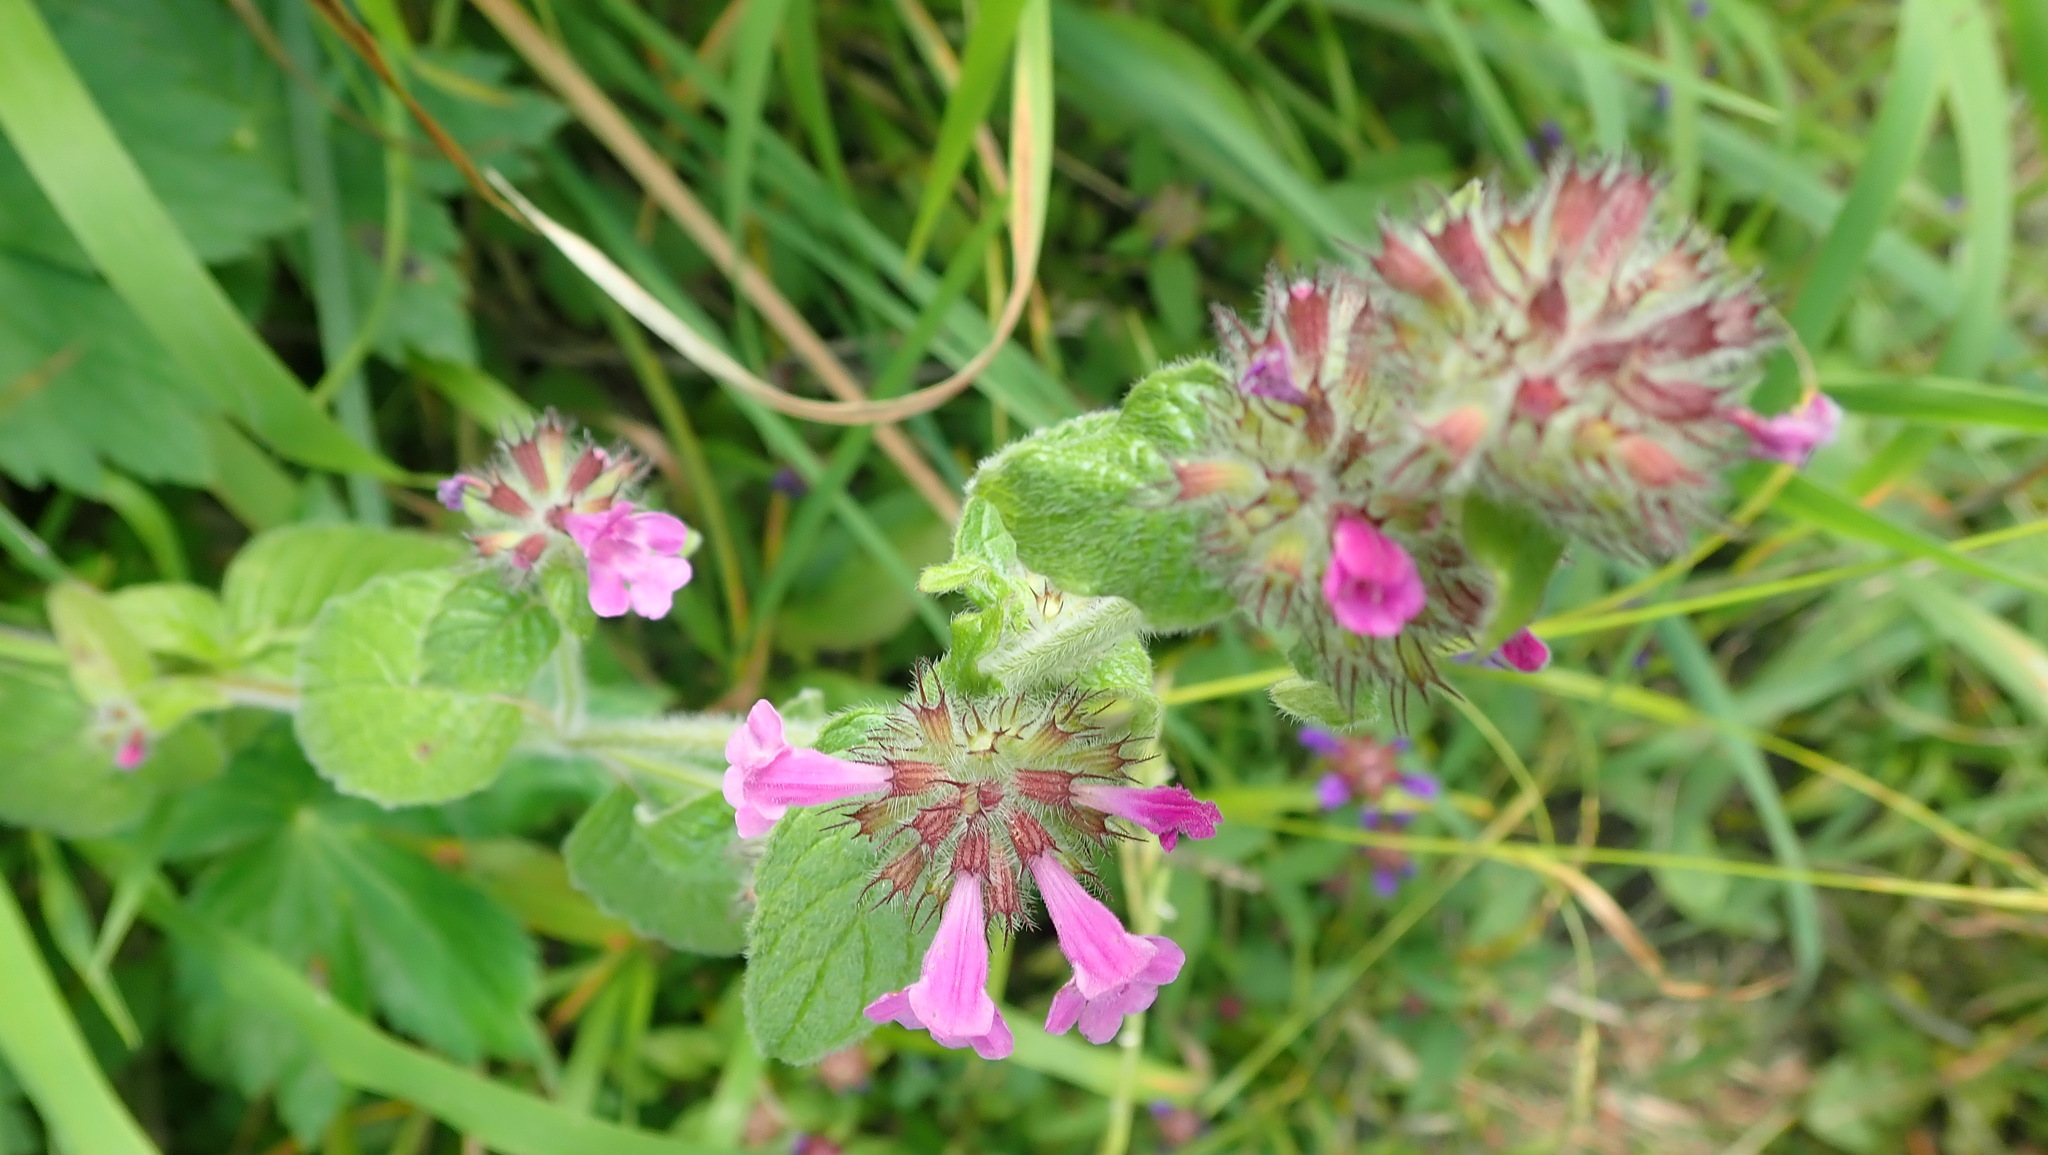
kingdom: Plantae
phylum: Tracheophyta
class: Magnoliopsida
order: Lamiales
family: Lamiaceae
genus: Clinopodium
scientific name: Clinopodium vulgare
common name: Wild basil
